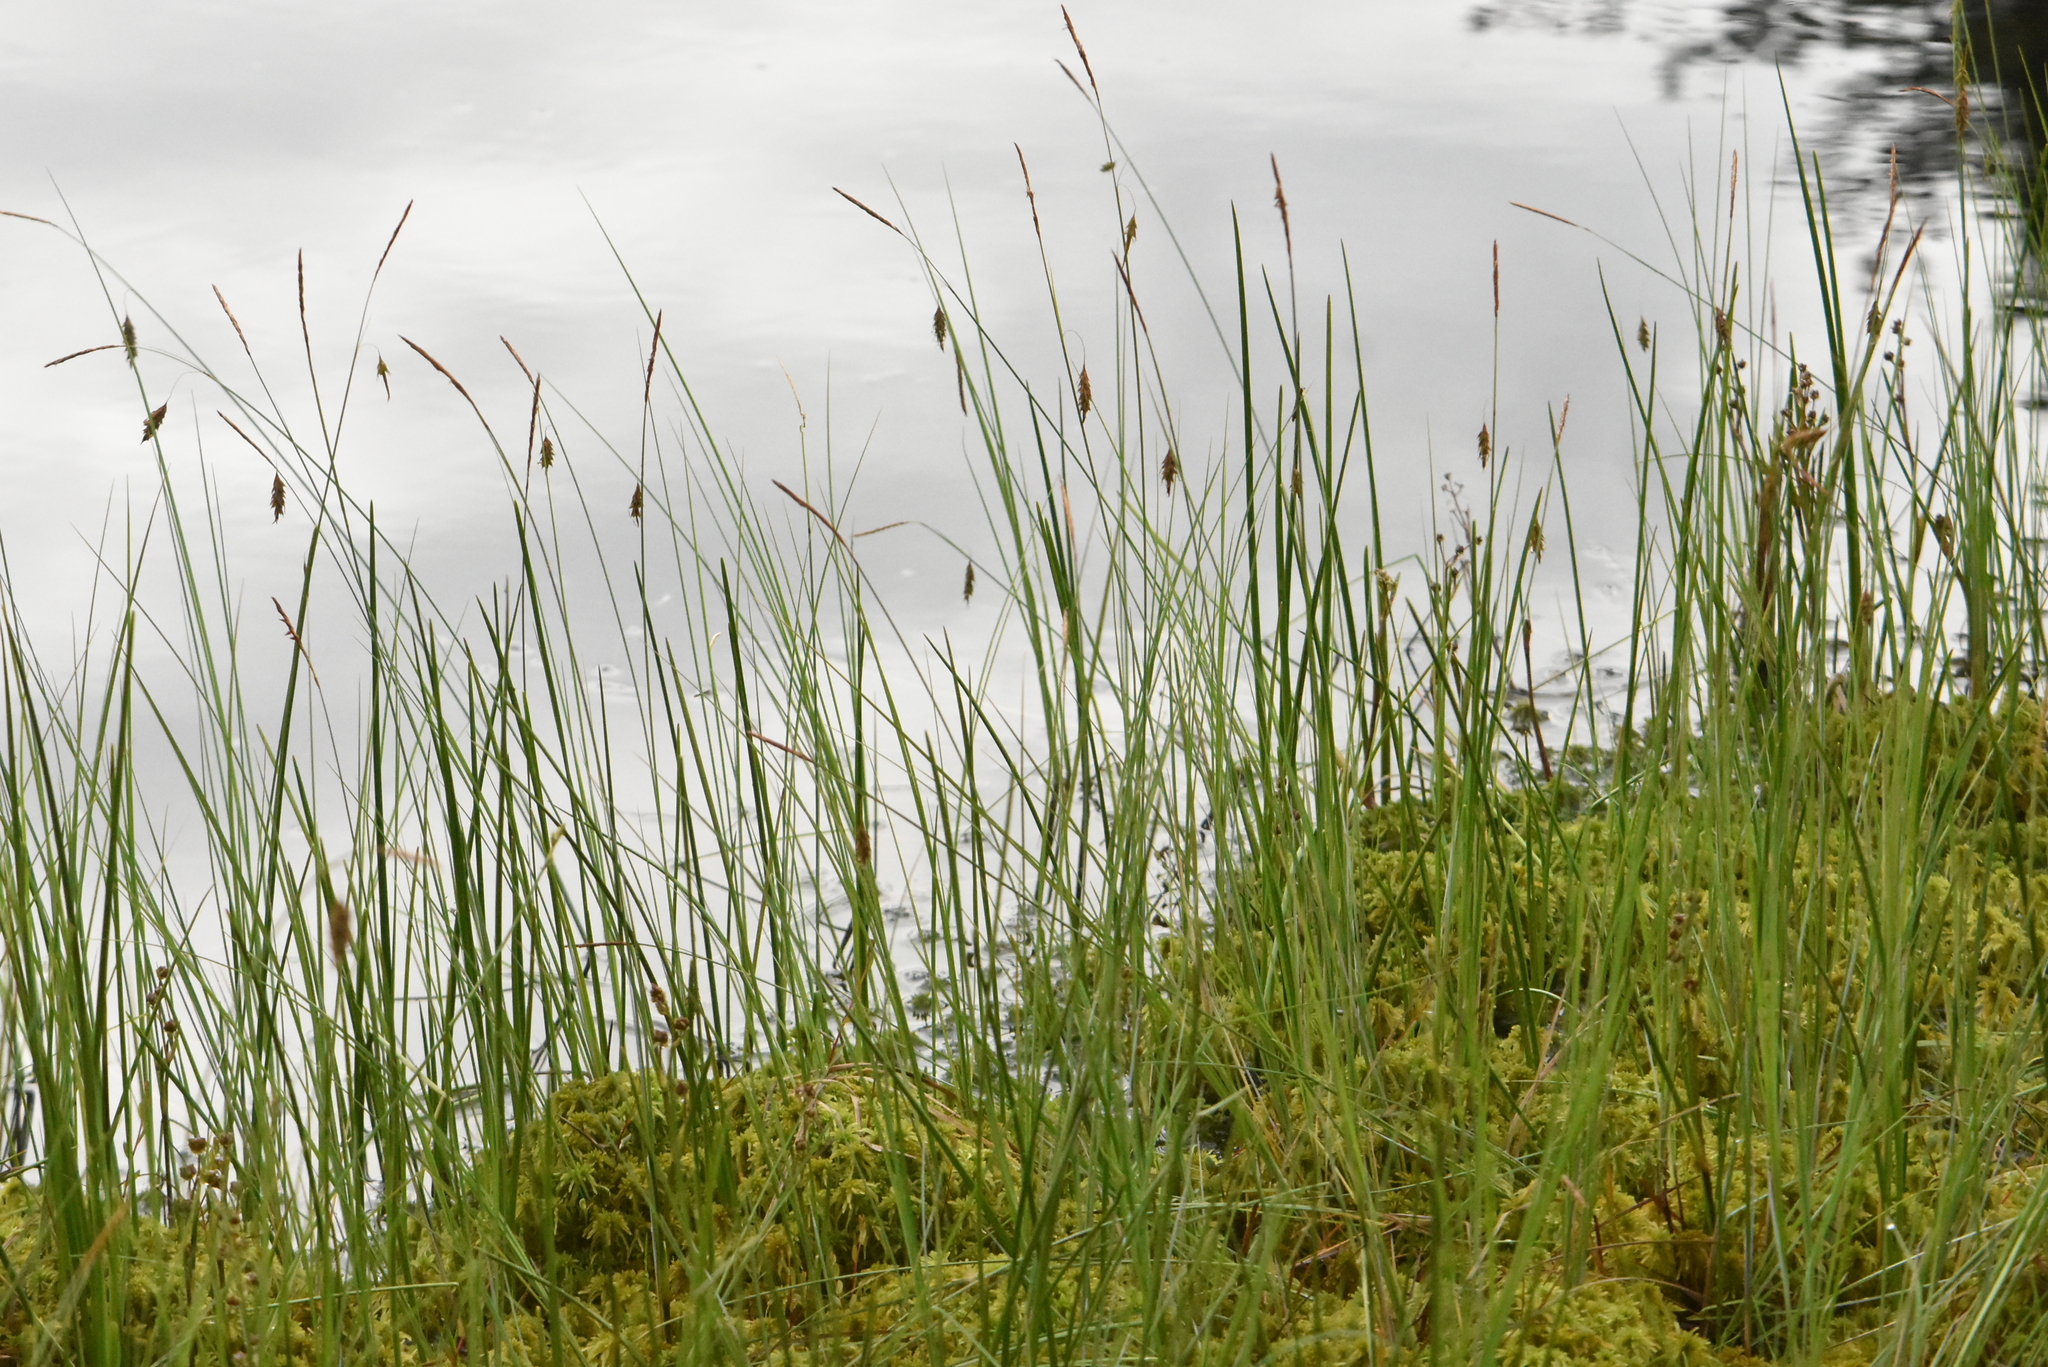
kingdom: Plantae
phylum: Tracheophyta
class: Liliopsida
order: Poales
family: Cyperaceae
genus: Carex
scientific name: Carex limosa
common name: Bog sedge
